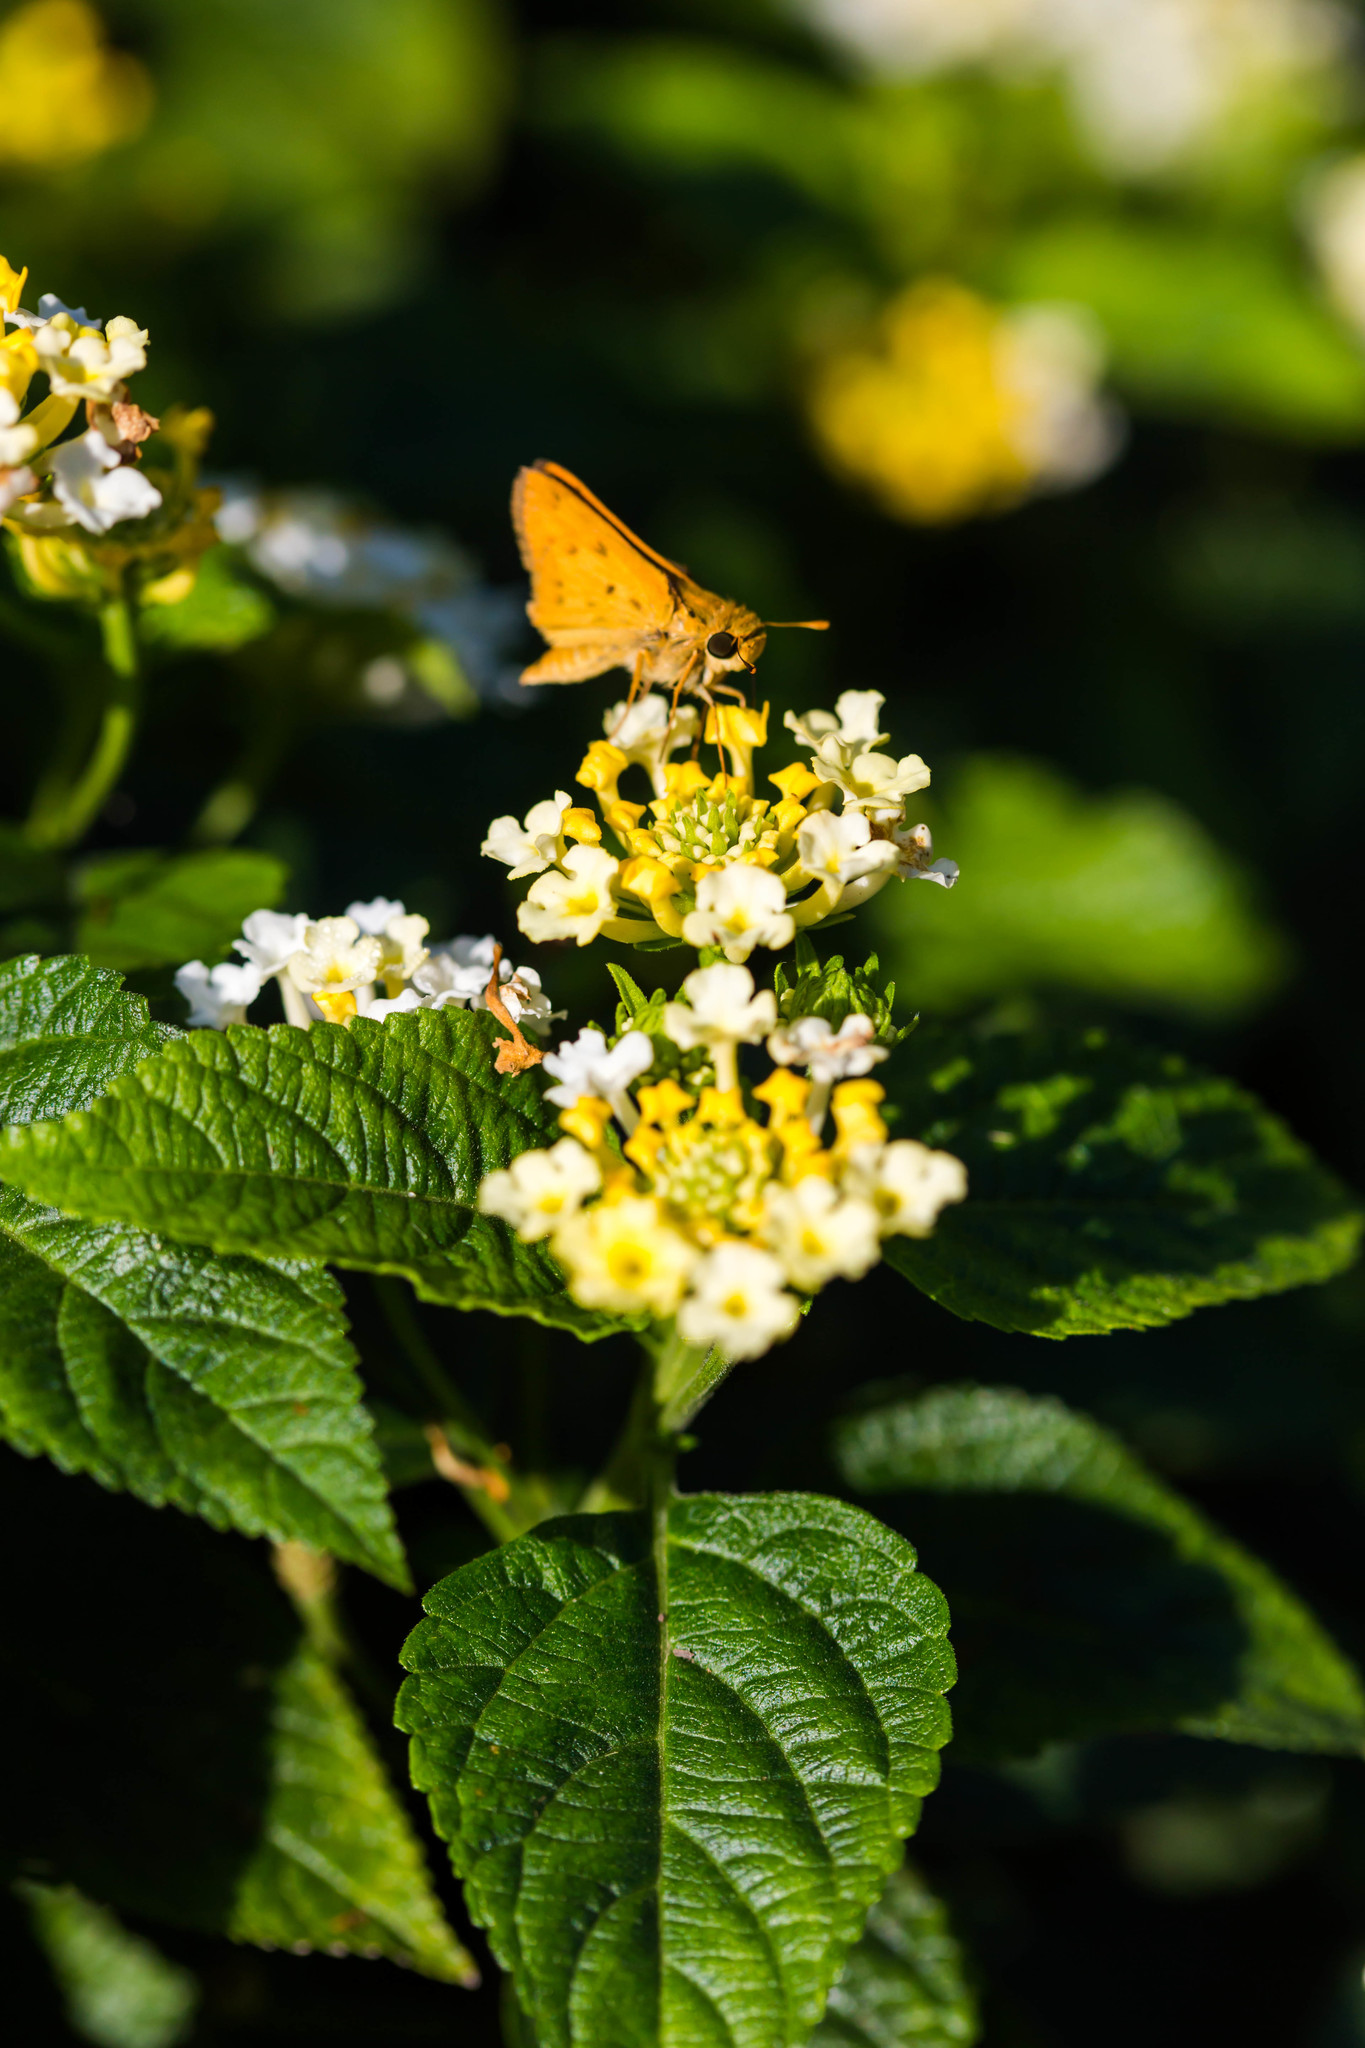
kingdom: Animalia
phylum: Arthropoda
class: Insecta
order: Lepidoptera
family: Hesperiidae
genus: Hylephila
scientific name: Hylephila phyleus
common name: Fiery skipper
